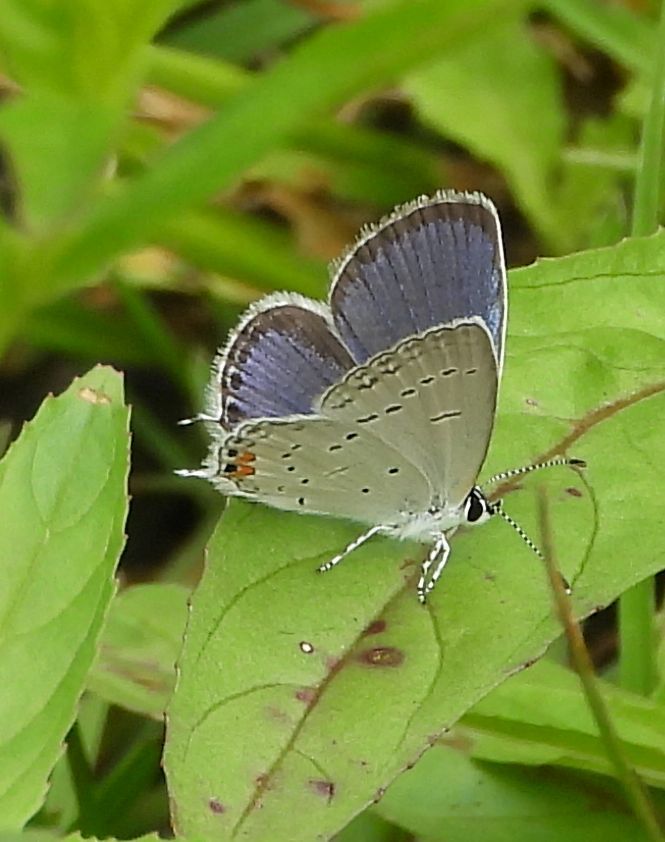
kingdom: Animalia
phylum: Arthropoda
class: Insecta
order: Lepidoptera
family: Lycaenidae
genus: Elkalyce
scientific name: Elkalyce comyntas
